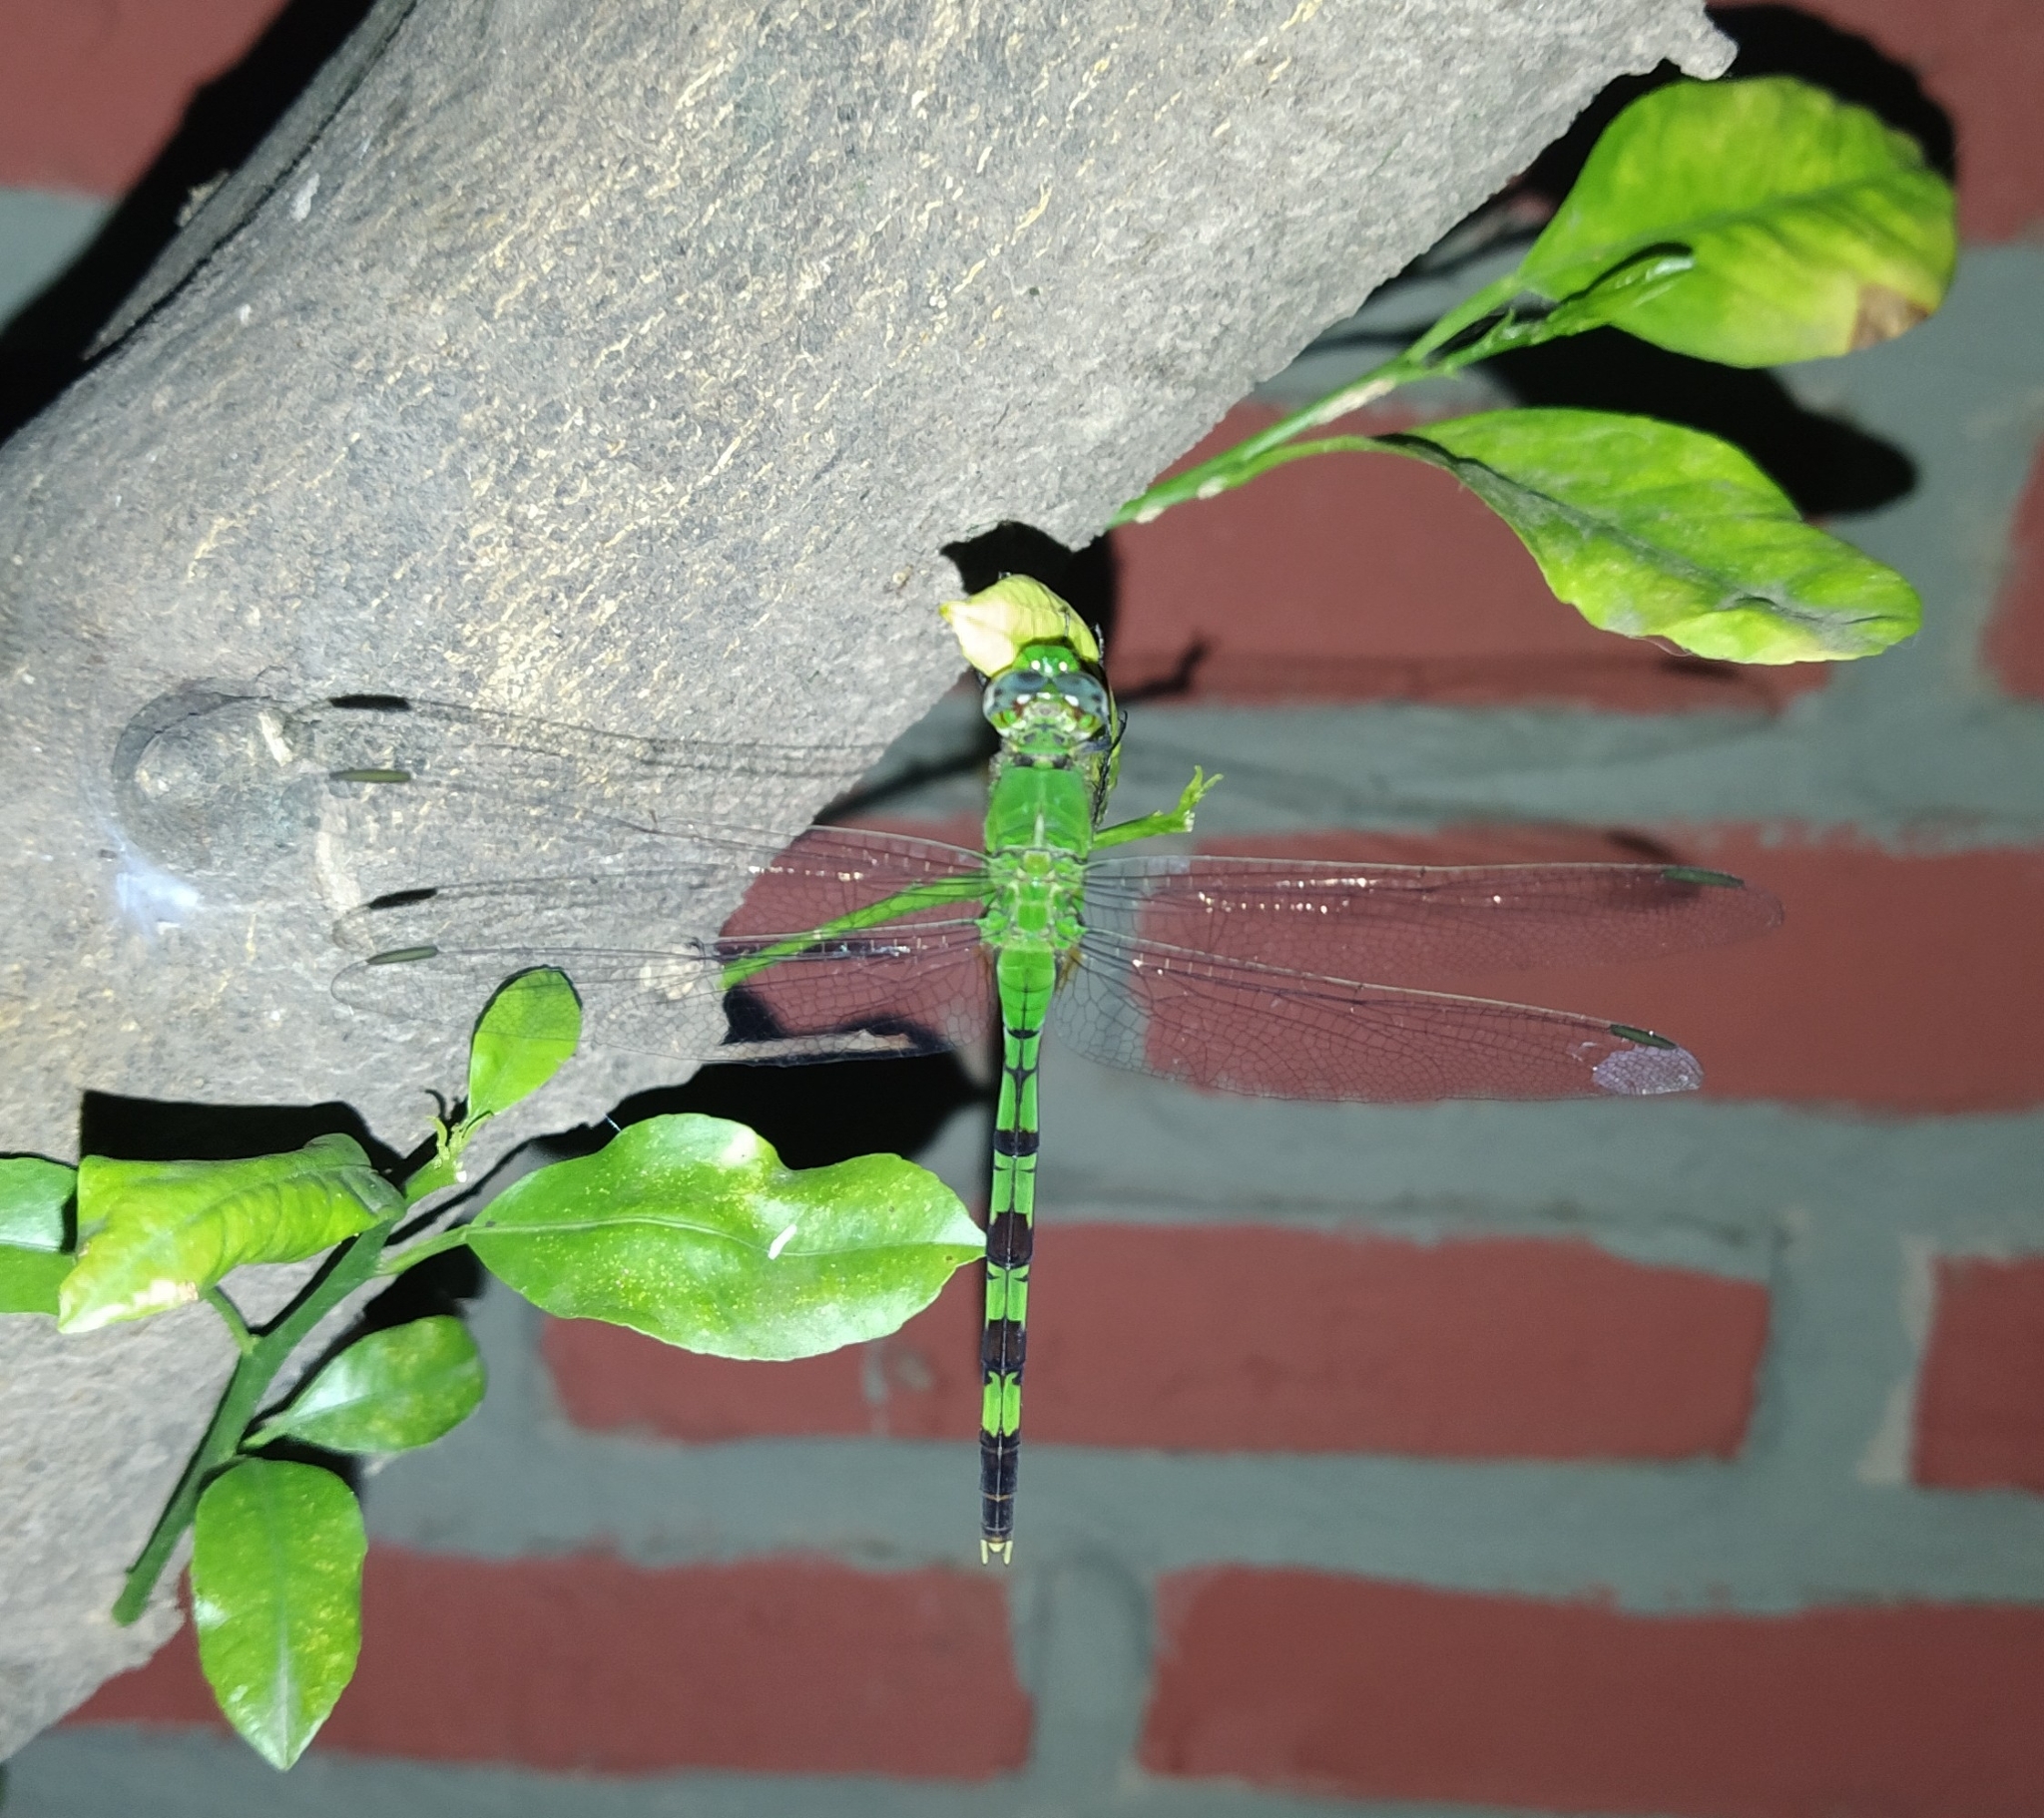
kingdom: Animalia
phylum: Arthropoda
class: Insecta
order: Odonata
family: Libellulidae
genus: Erythemis
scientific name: Erythemis vesiculosa
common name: Great pondhawk
